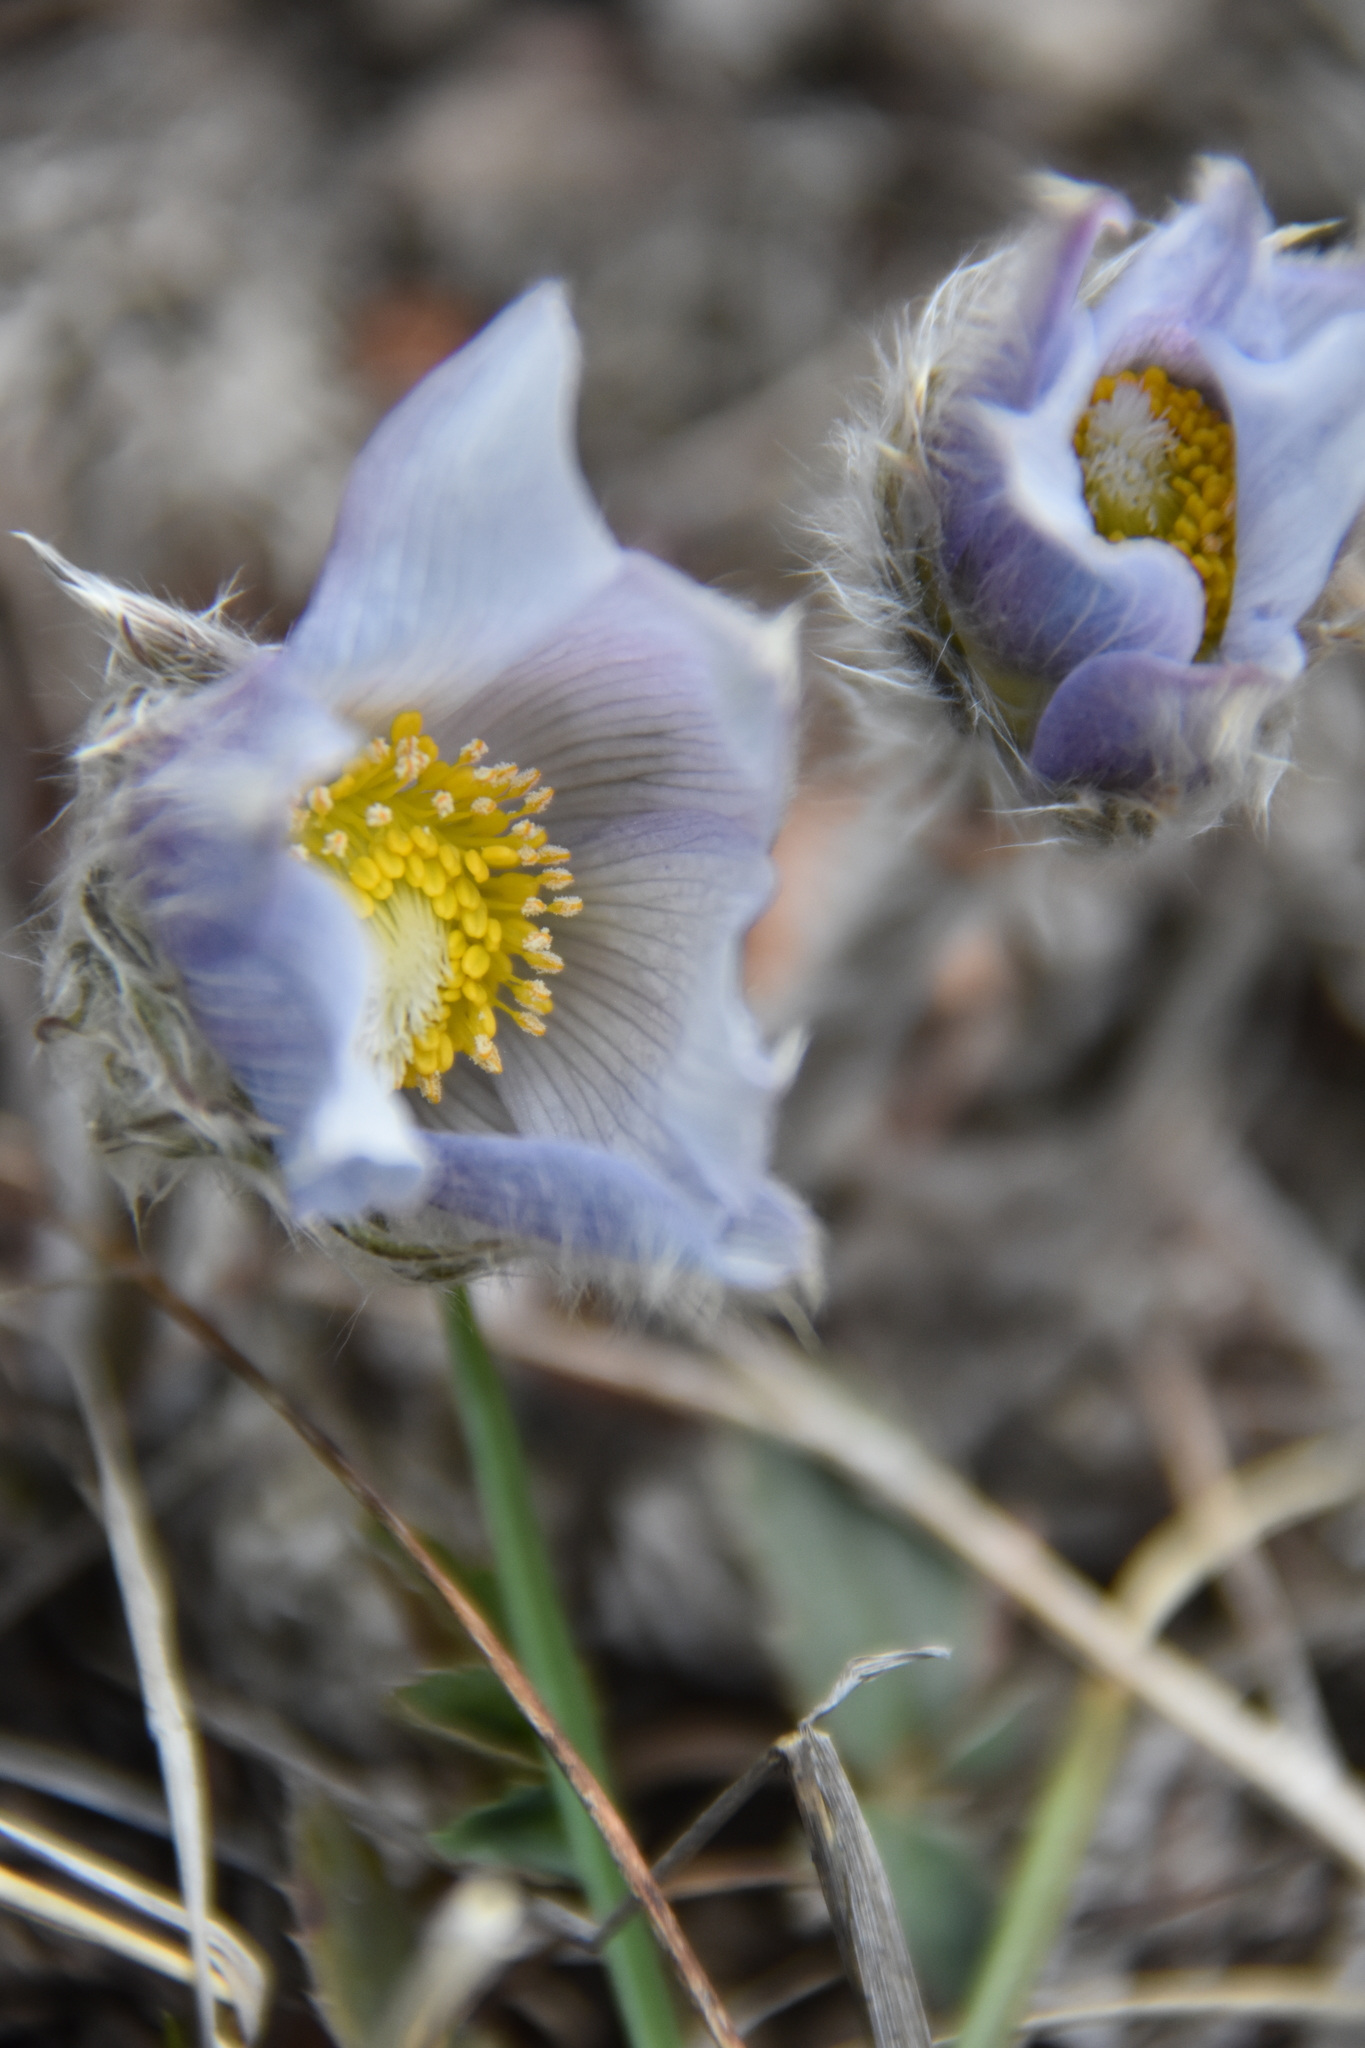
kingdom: Plantae
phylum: Tracheophyta
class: Magnoliopsida
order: Ranunculales
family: Ranunculaceae
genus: Pulsatilla
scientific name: Pulsatilla nuttalliana
